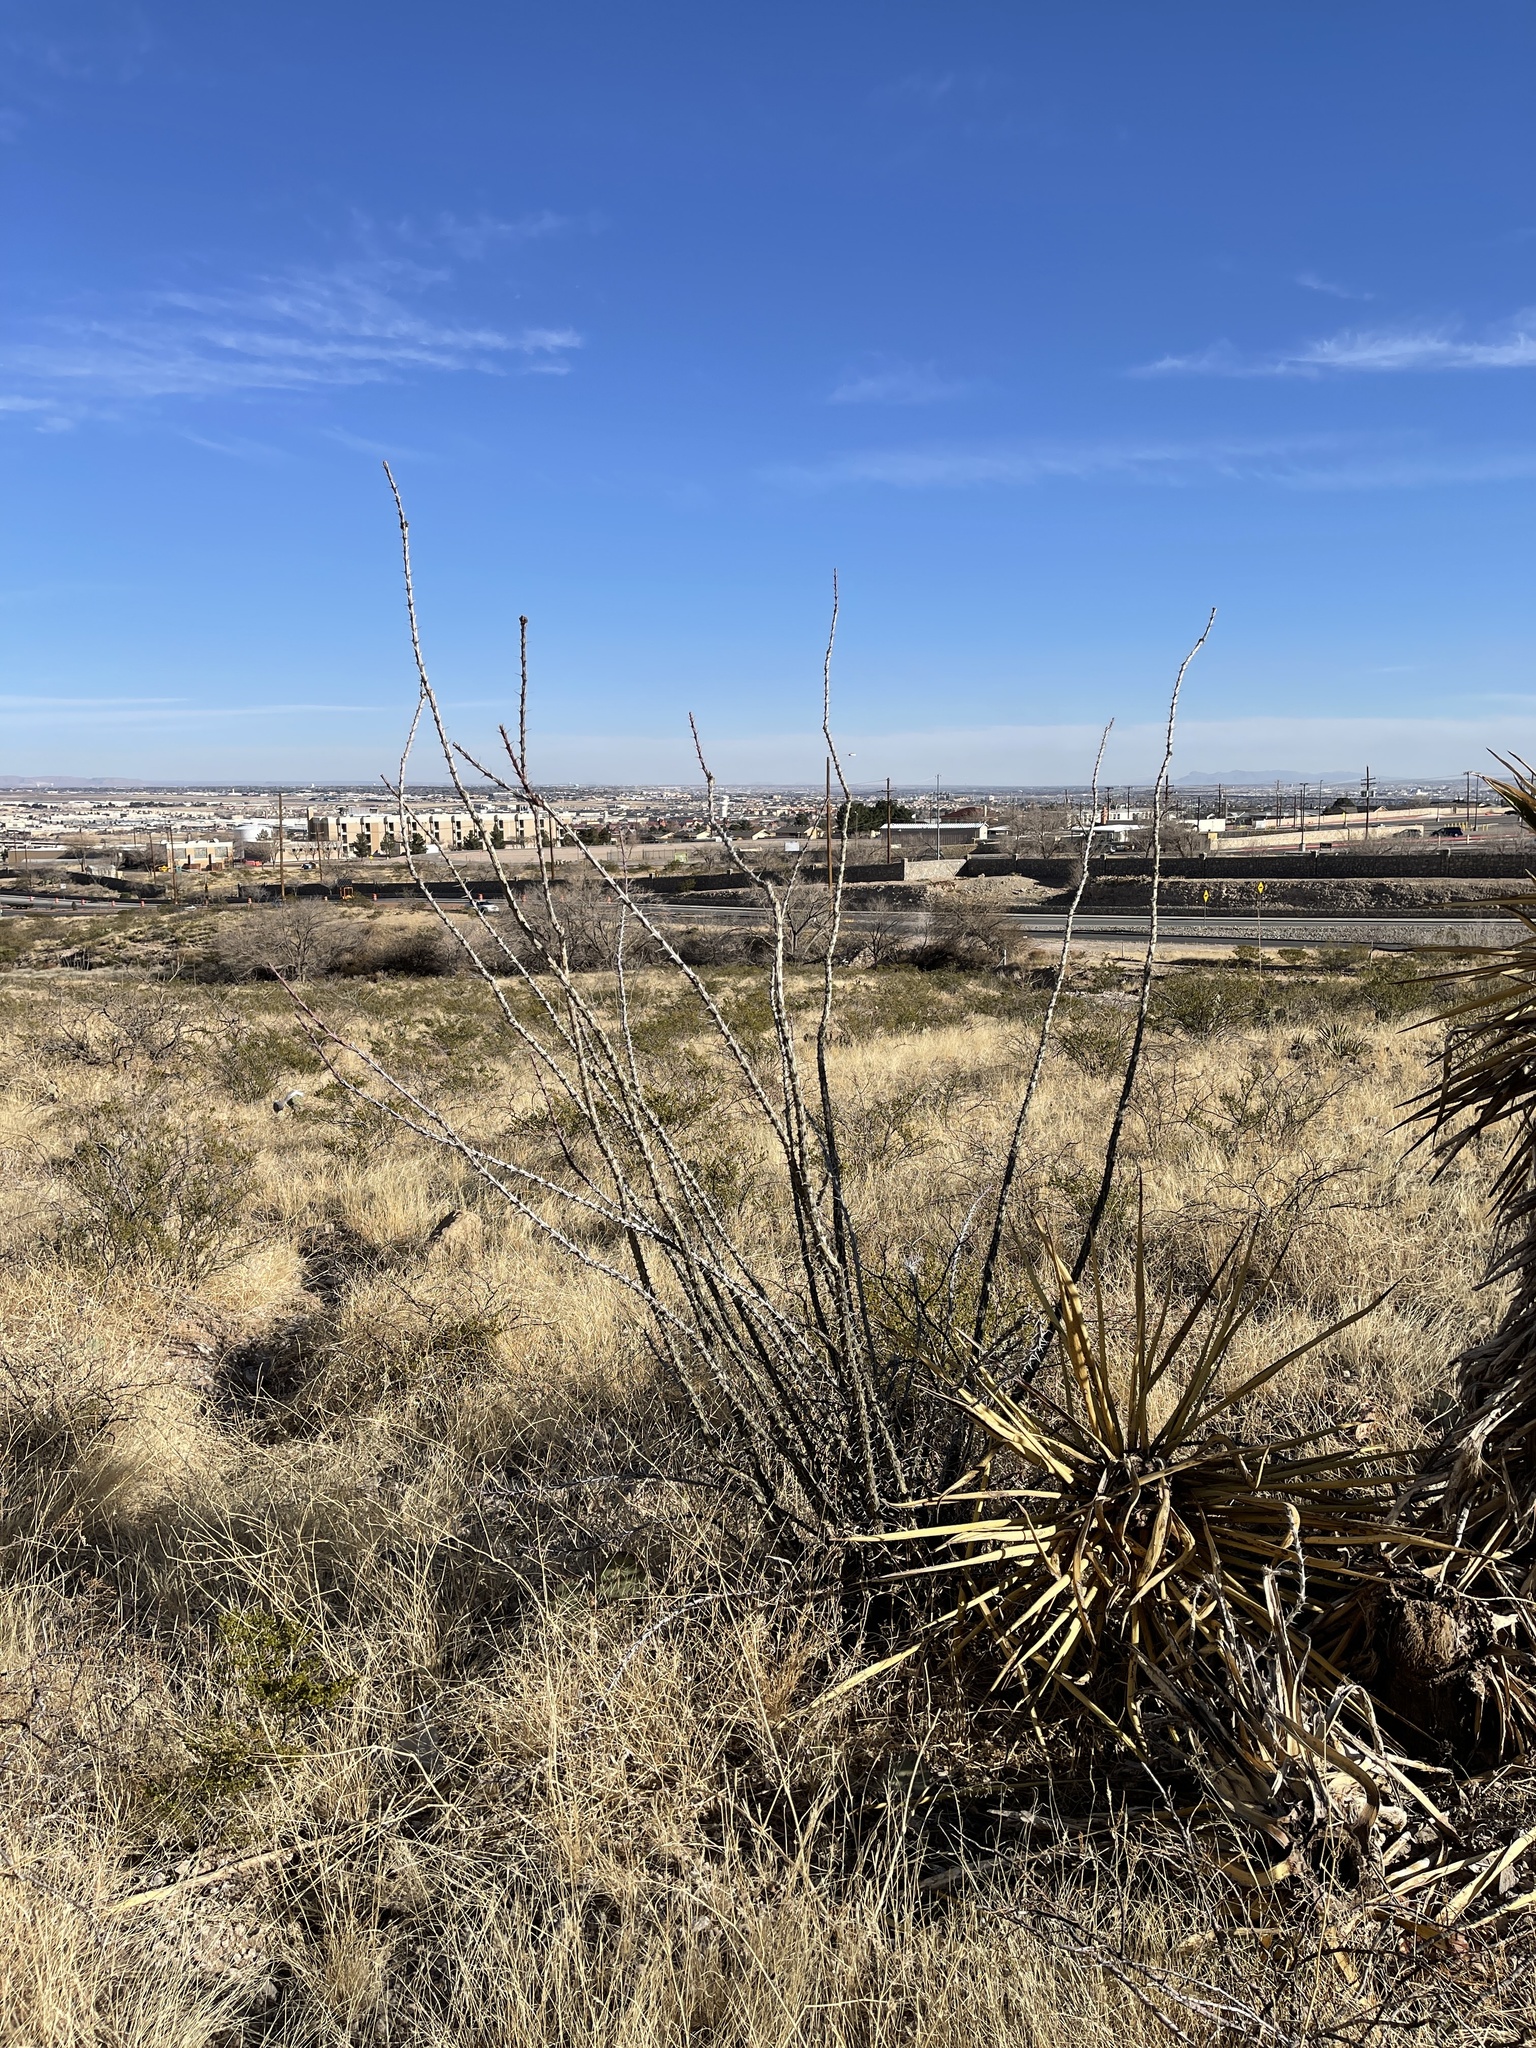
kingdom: Plantae
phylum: Tracheophyta
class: Magnoliopsida
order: Ericales
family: Fouquieriaceae
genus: Fouquieria
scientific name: Fouquieria splendens
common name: Vine-cactus
